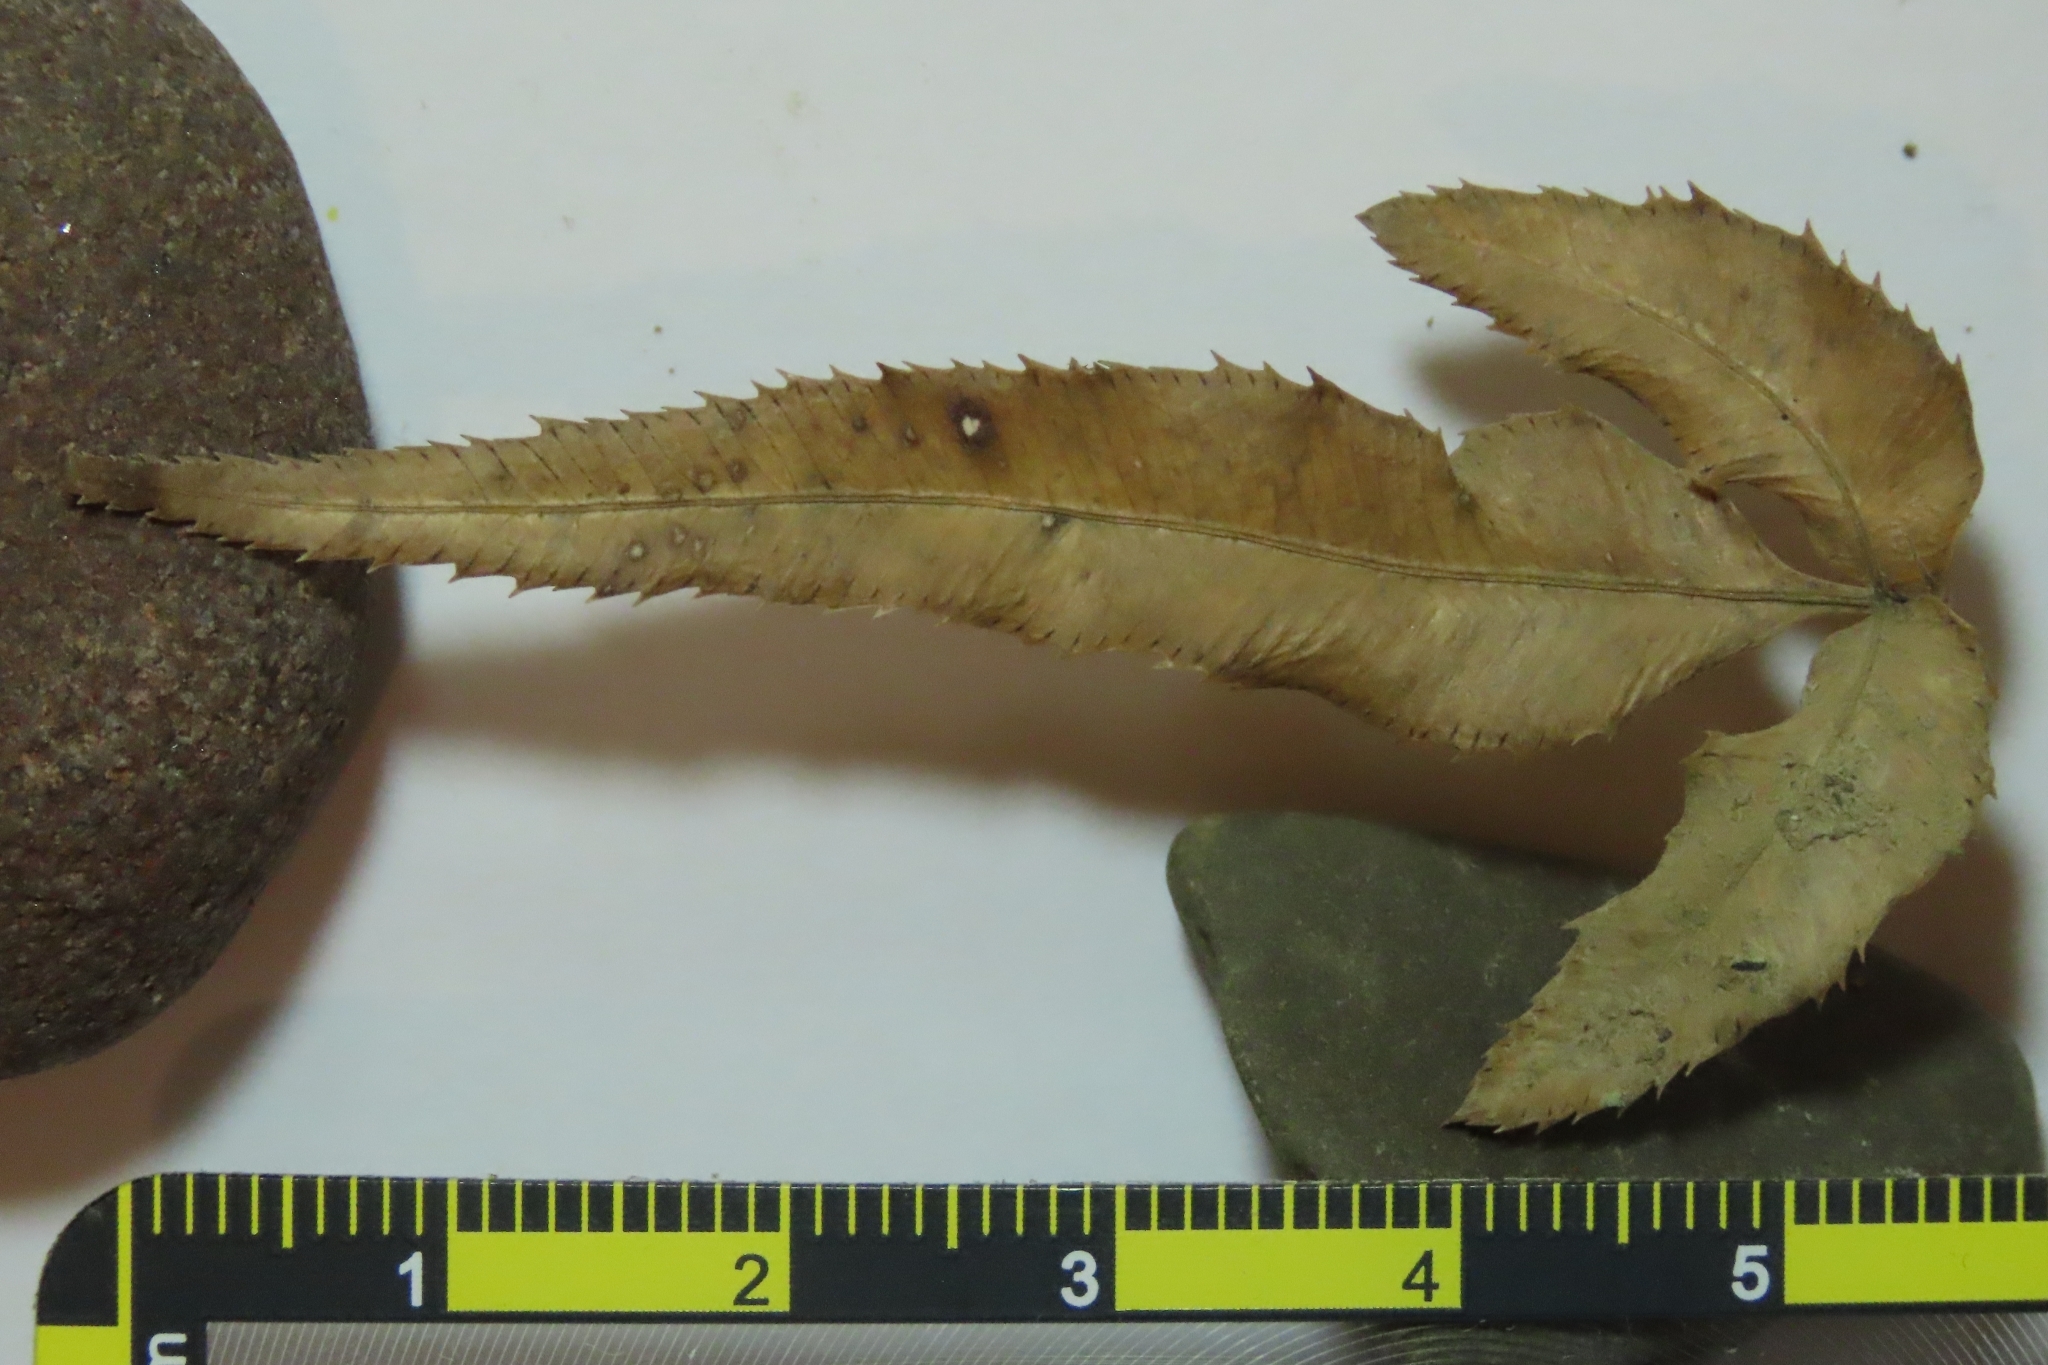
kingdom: Plantae
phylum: Tracheophyta
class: Polypodiopsida
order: Polypodiales
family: Pteridaceae
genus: Pteris
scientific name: Pteris cretica
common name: Ribbon fern
